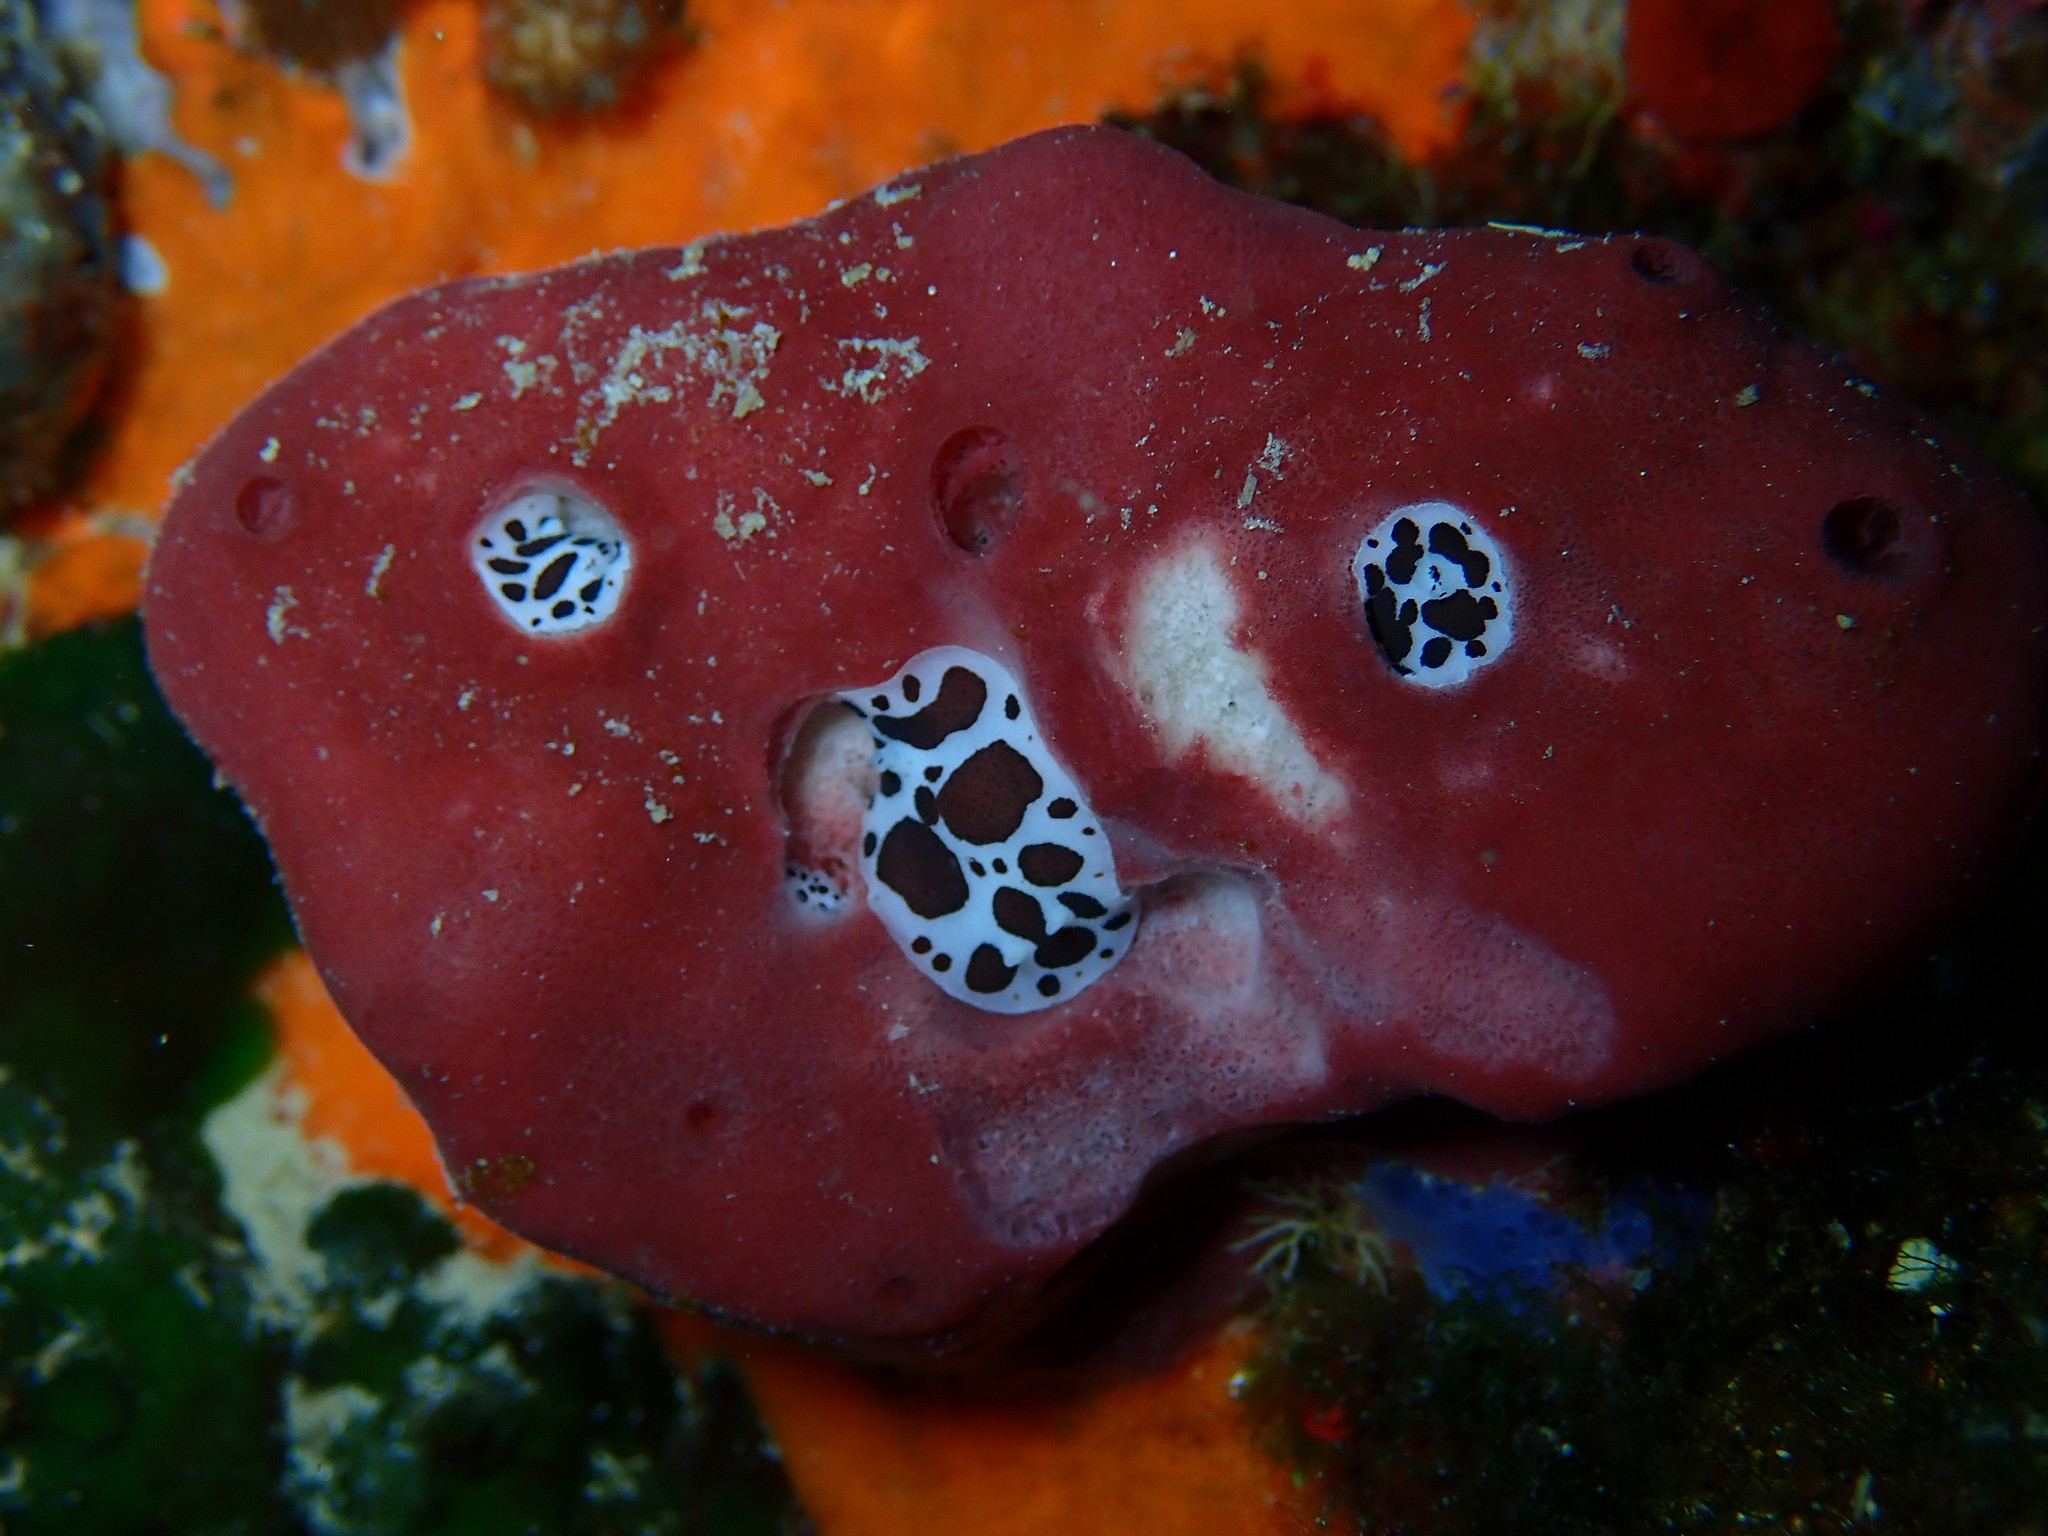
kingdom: Animalia
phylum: Mollusca
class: Gastropoda
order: Nudibranchia
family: Discodorididae
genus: Peltodoris
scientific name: Peltodoris atromaculata
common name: Swiss cow nudibranch
